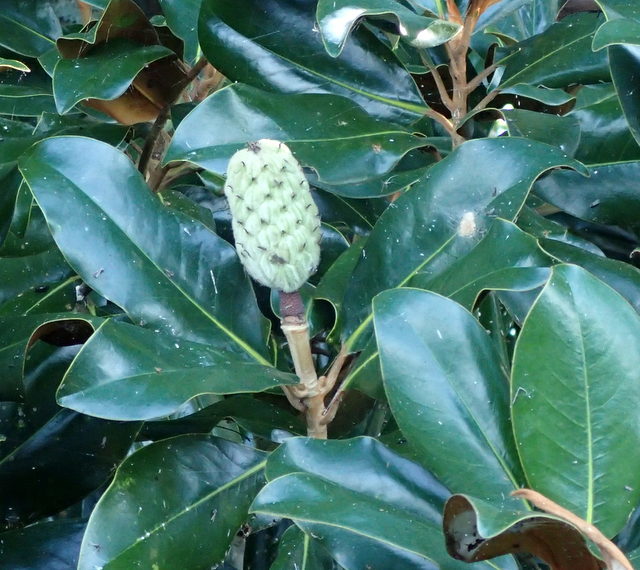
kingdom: Plantae
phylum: Tracheophyta
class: Magnoliopsida
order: Magnoliales
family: Magnoliaceae
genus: Magnolia
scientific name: Magnolia grandiflora
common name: Southern magnolia
